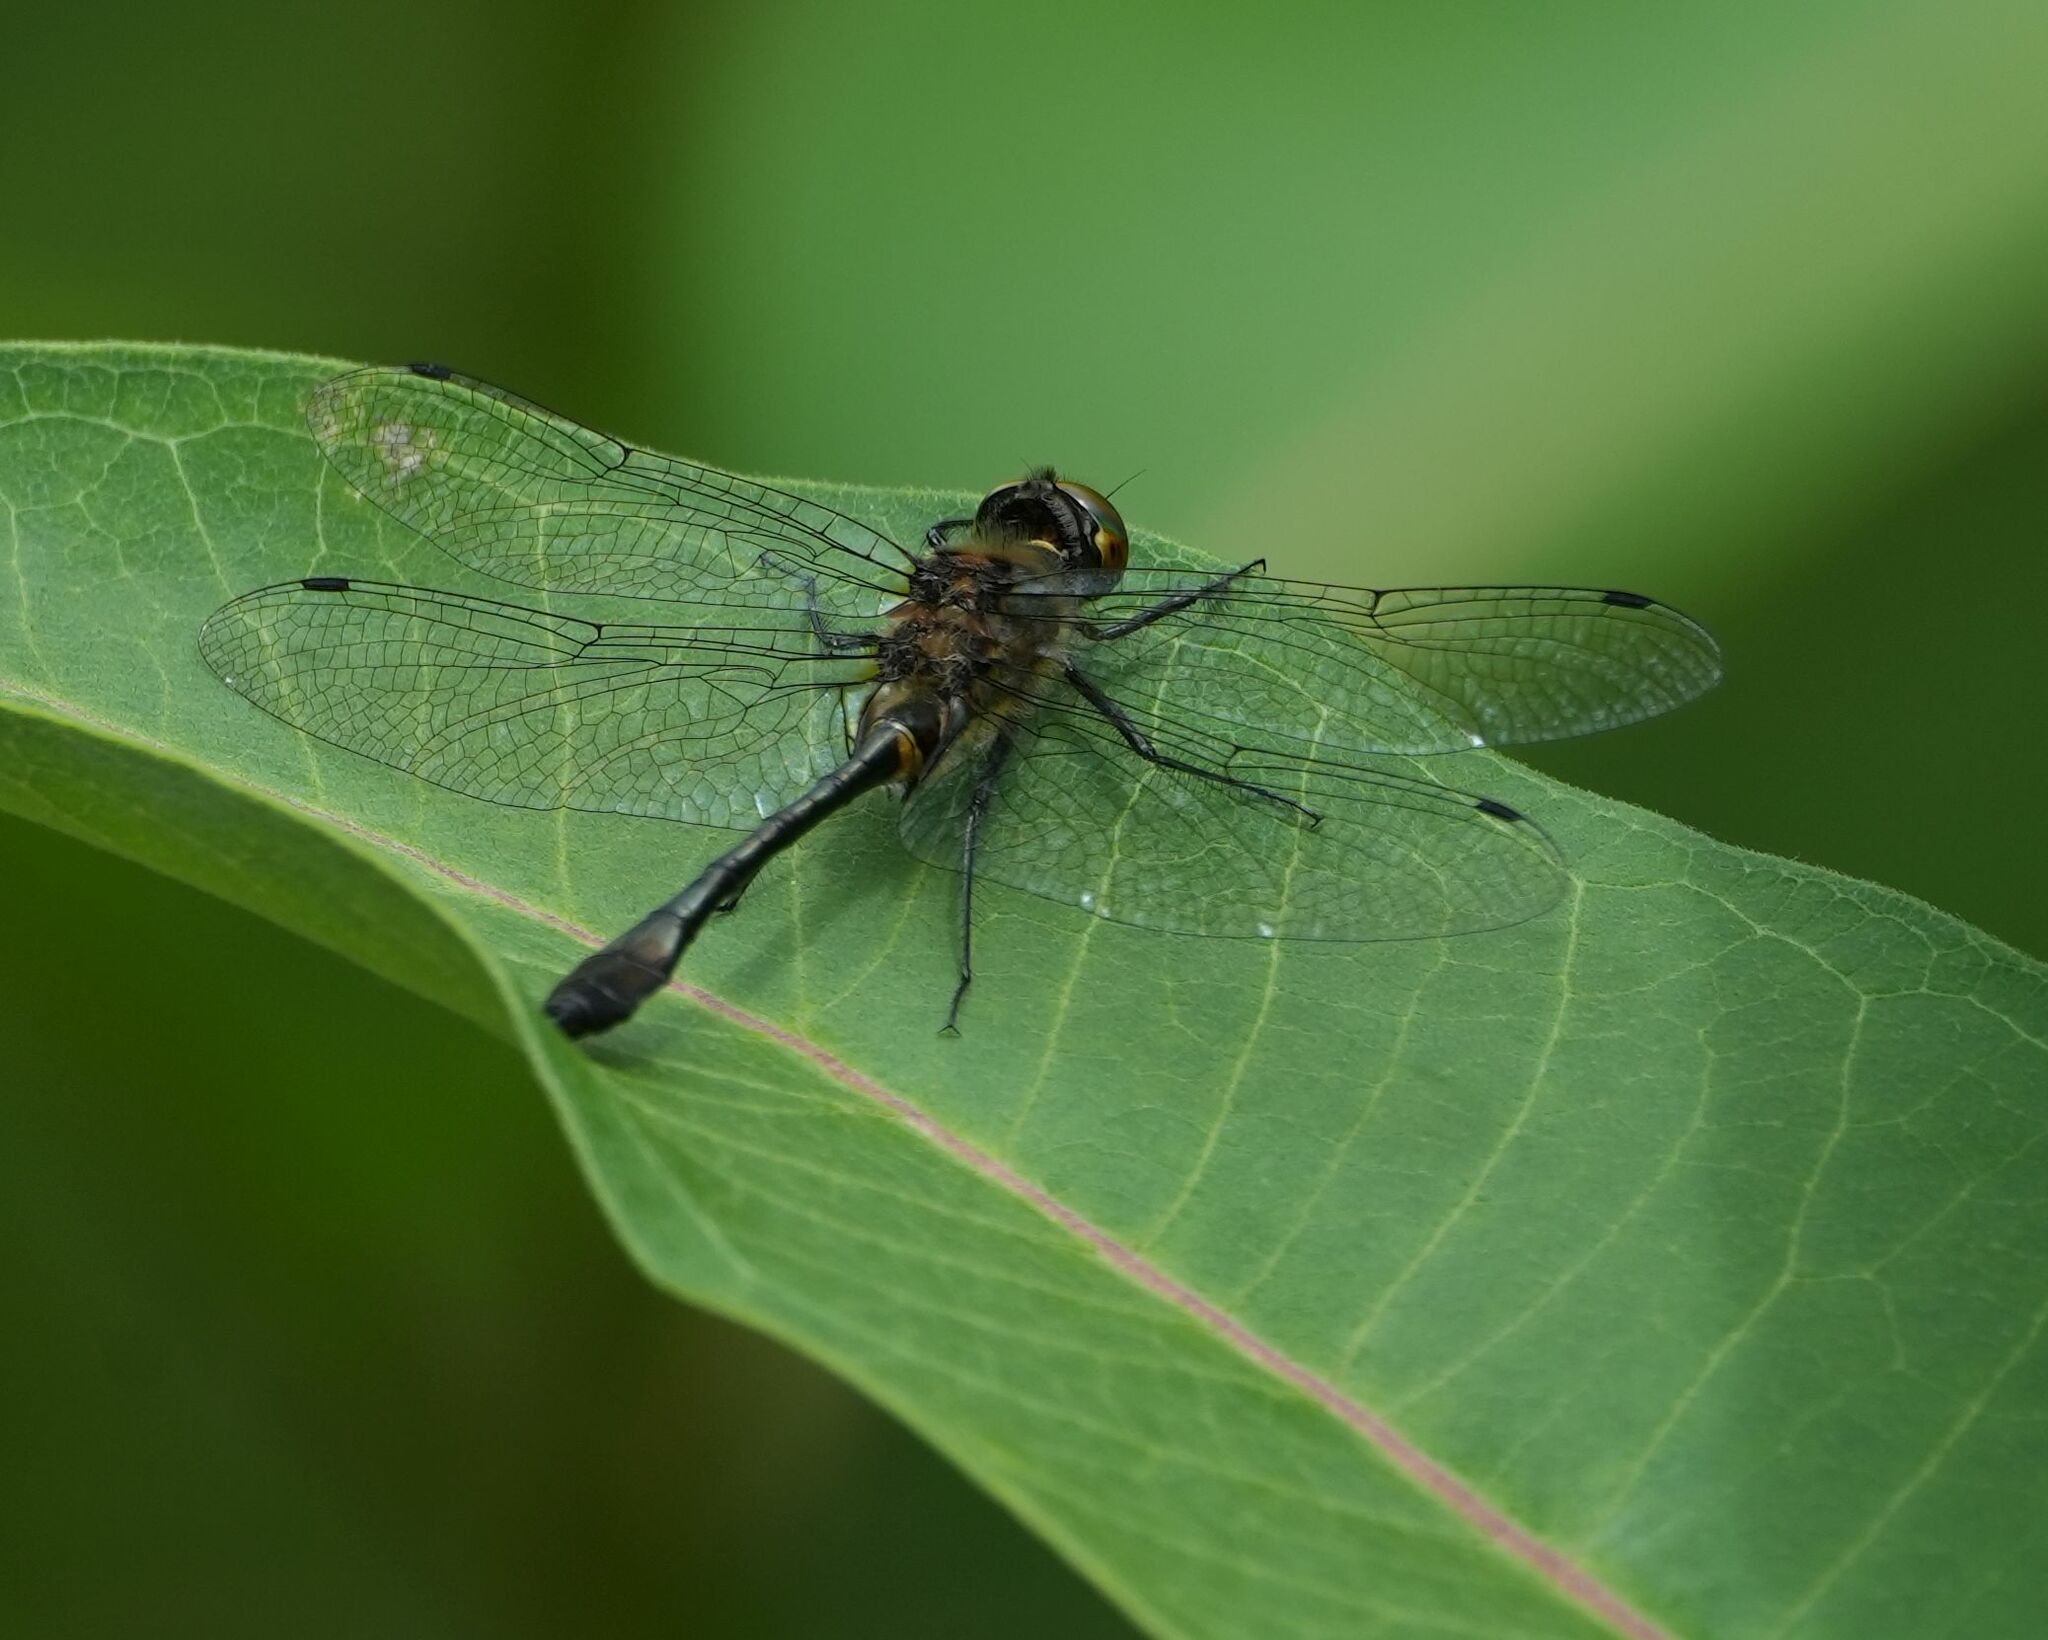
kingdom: Animalia
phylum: Arthropoda
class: Insecta
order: Odonata
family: Corduliidae
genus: Dorocordulia
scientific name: Dorocordulia libera
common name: Racket-tailed emerald
